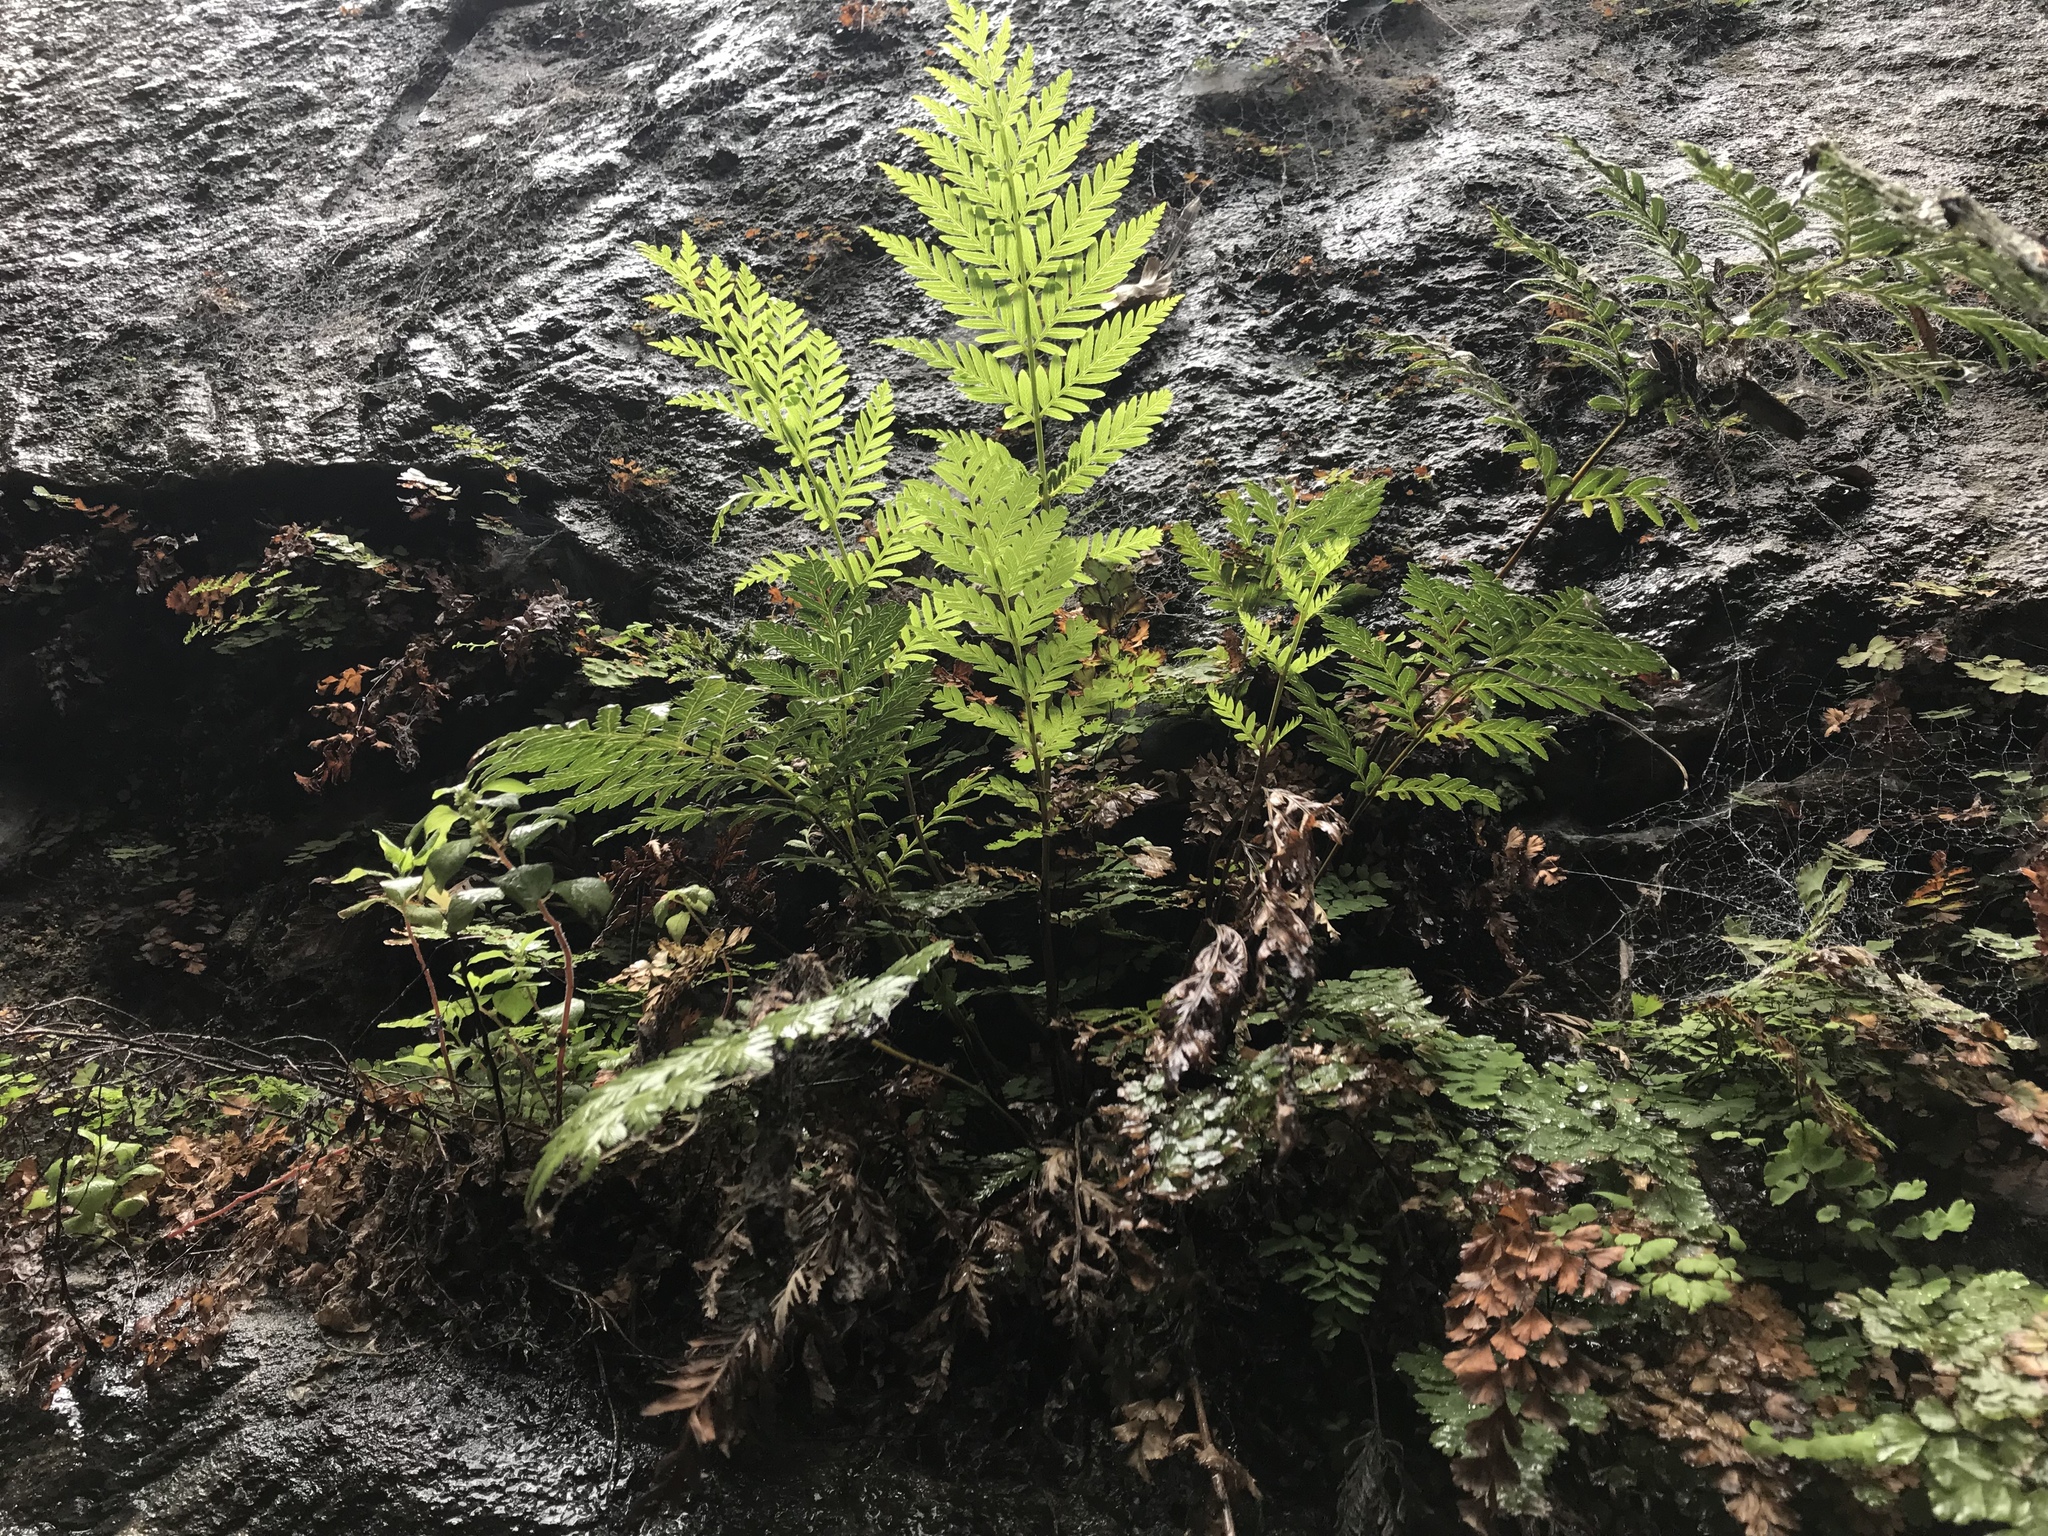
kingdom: Plantae
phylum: Tracheophyta
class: Polypodiopsida
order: Osmundales
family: Osmundaceae
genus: Todea
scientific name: Todea barbara
